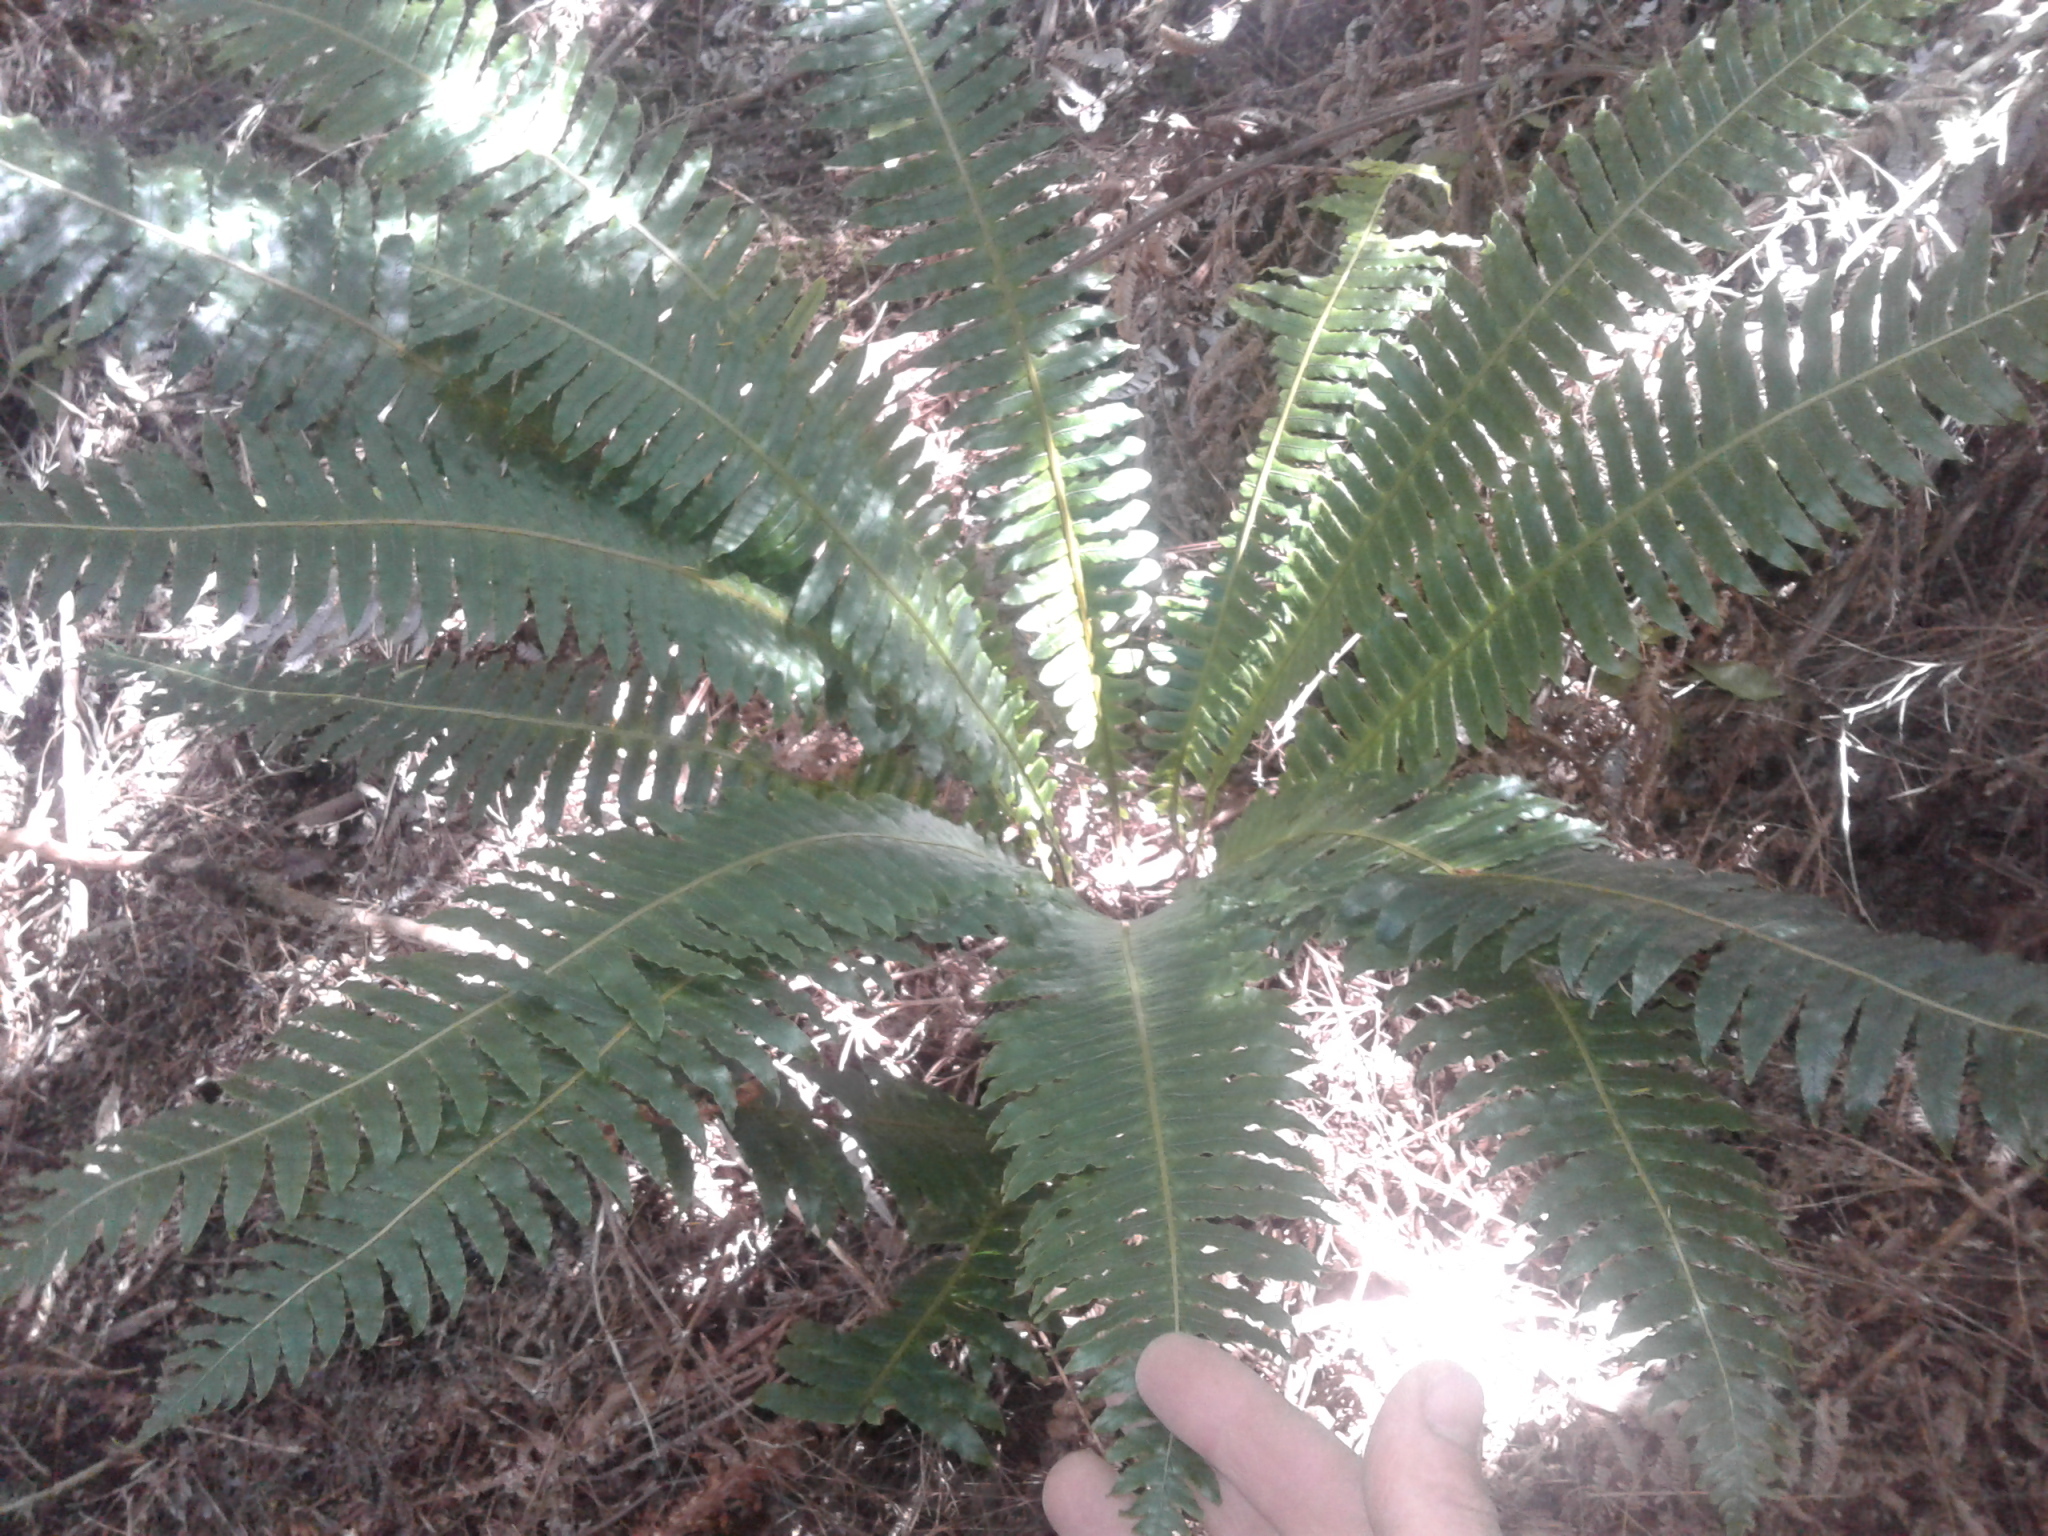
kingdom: Plantae
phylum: Tracheophyta
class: Polypodiopsida
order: Polypodiales
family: Blechnaceae
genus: Lomaria
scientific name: Lomaria discolor
